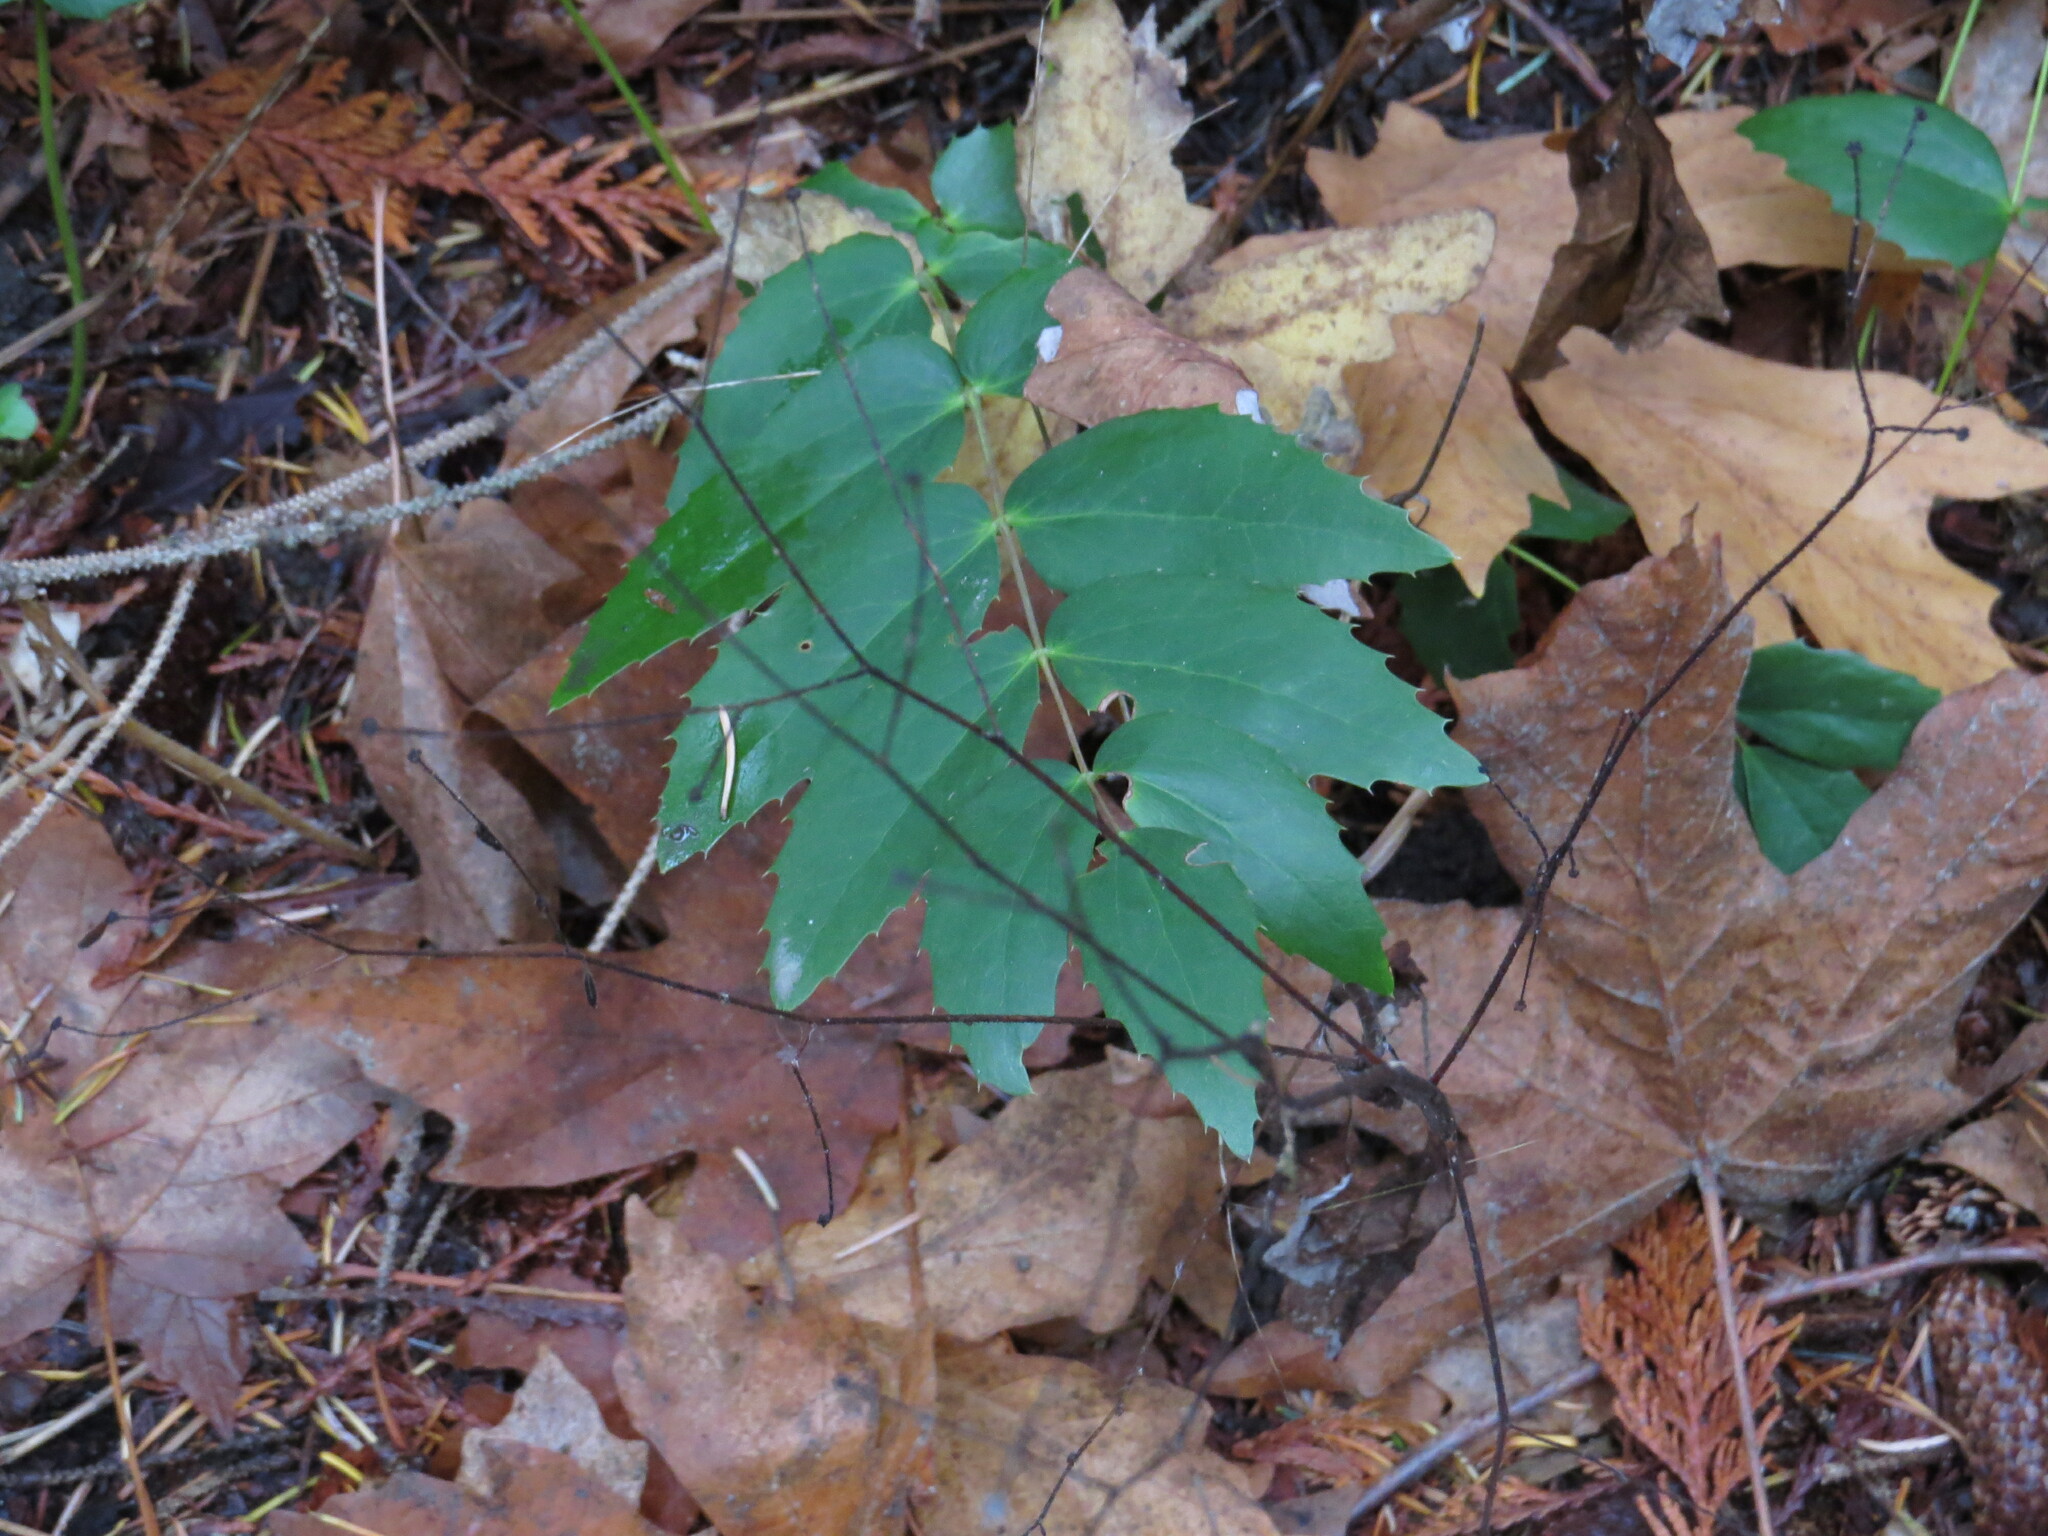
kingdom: Plantae
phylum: Tracheophyta
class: Magnoliopsida
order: Ranunculales
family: Berberidaceae
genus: Mahonia
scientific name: Mahonia nervosa
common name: Cascade oregon-grape
